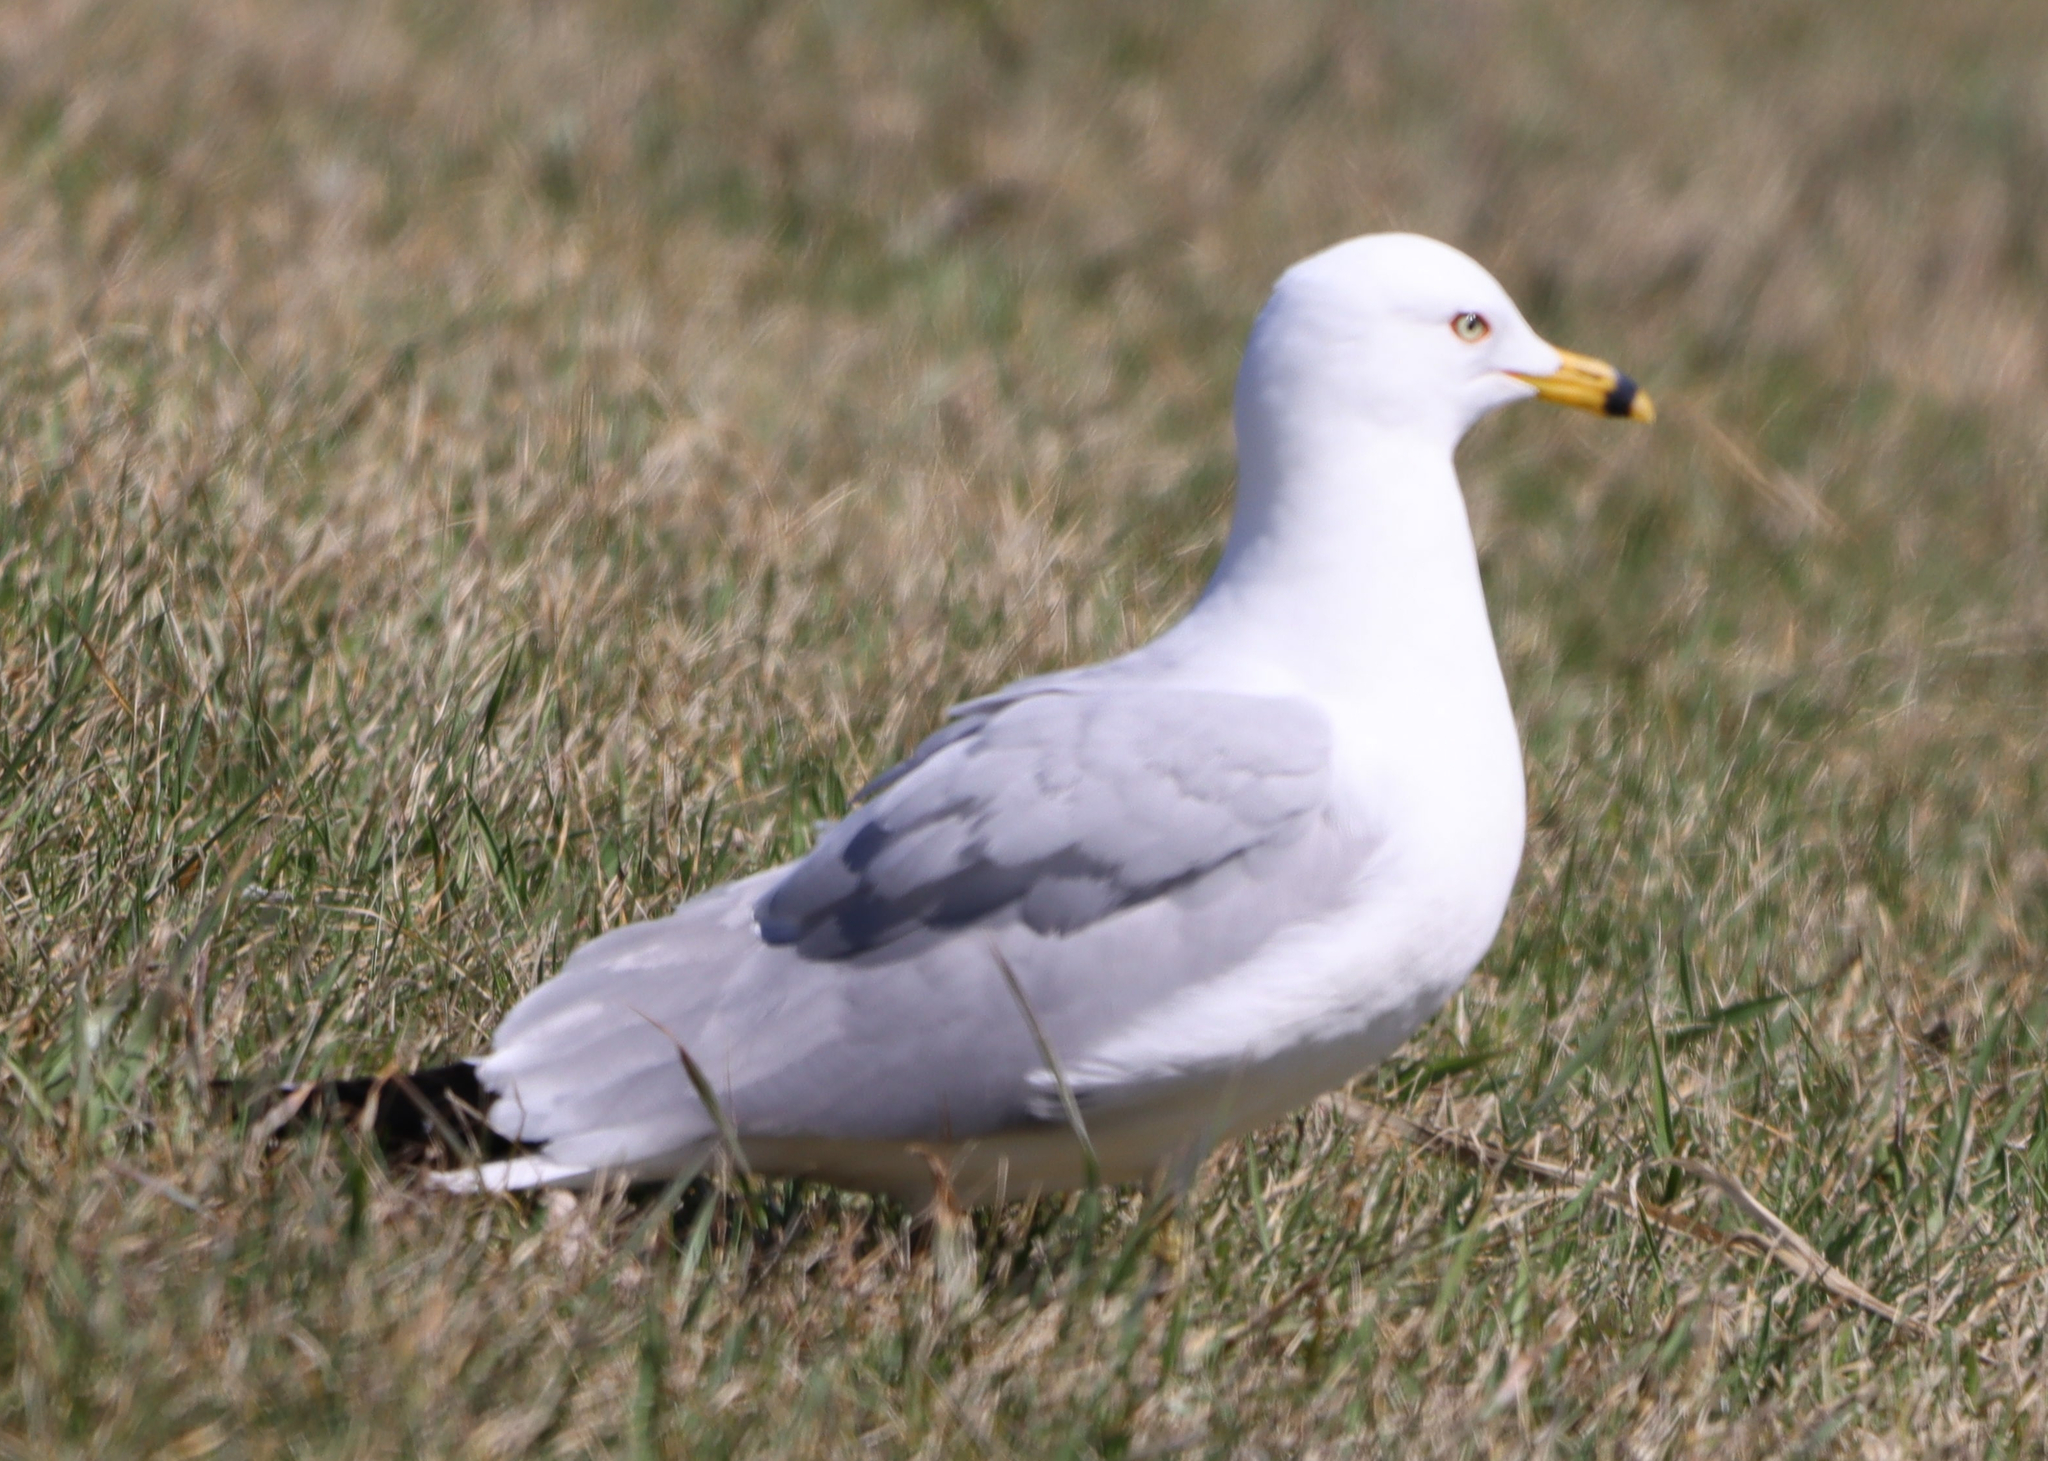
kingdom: Animalia
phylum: Chordata
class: Aves
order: Charadriiformes
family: Laridae
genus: Larus
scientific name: Larus delawarensis
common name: Ring-billed gull
